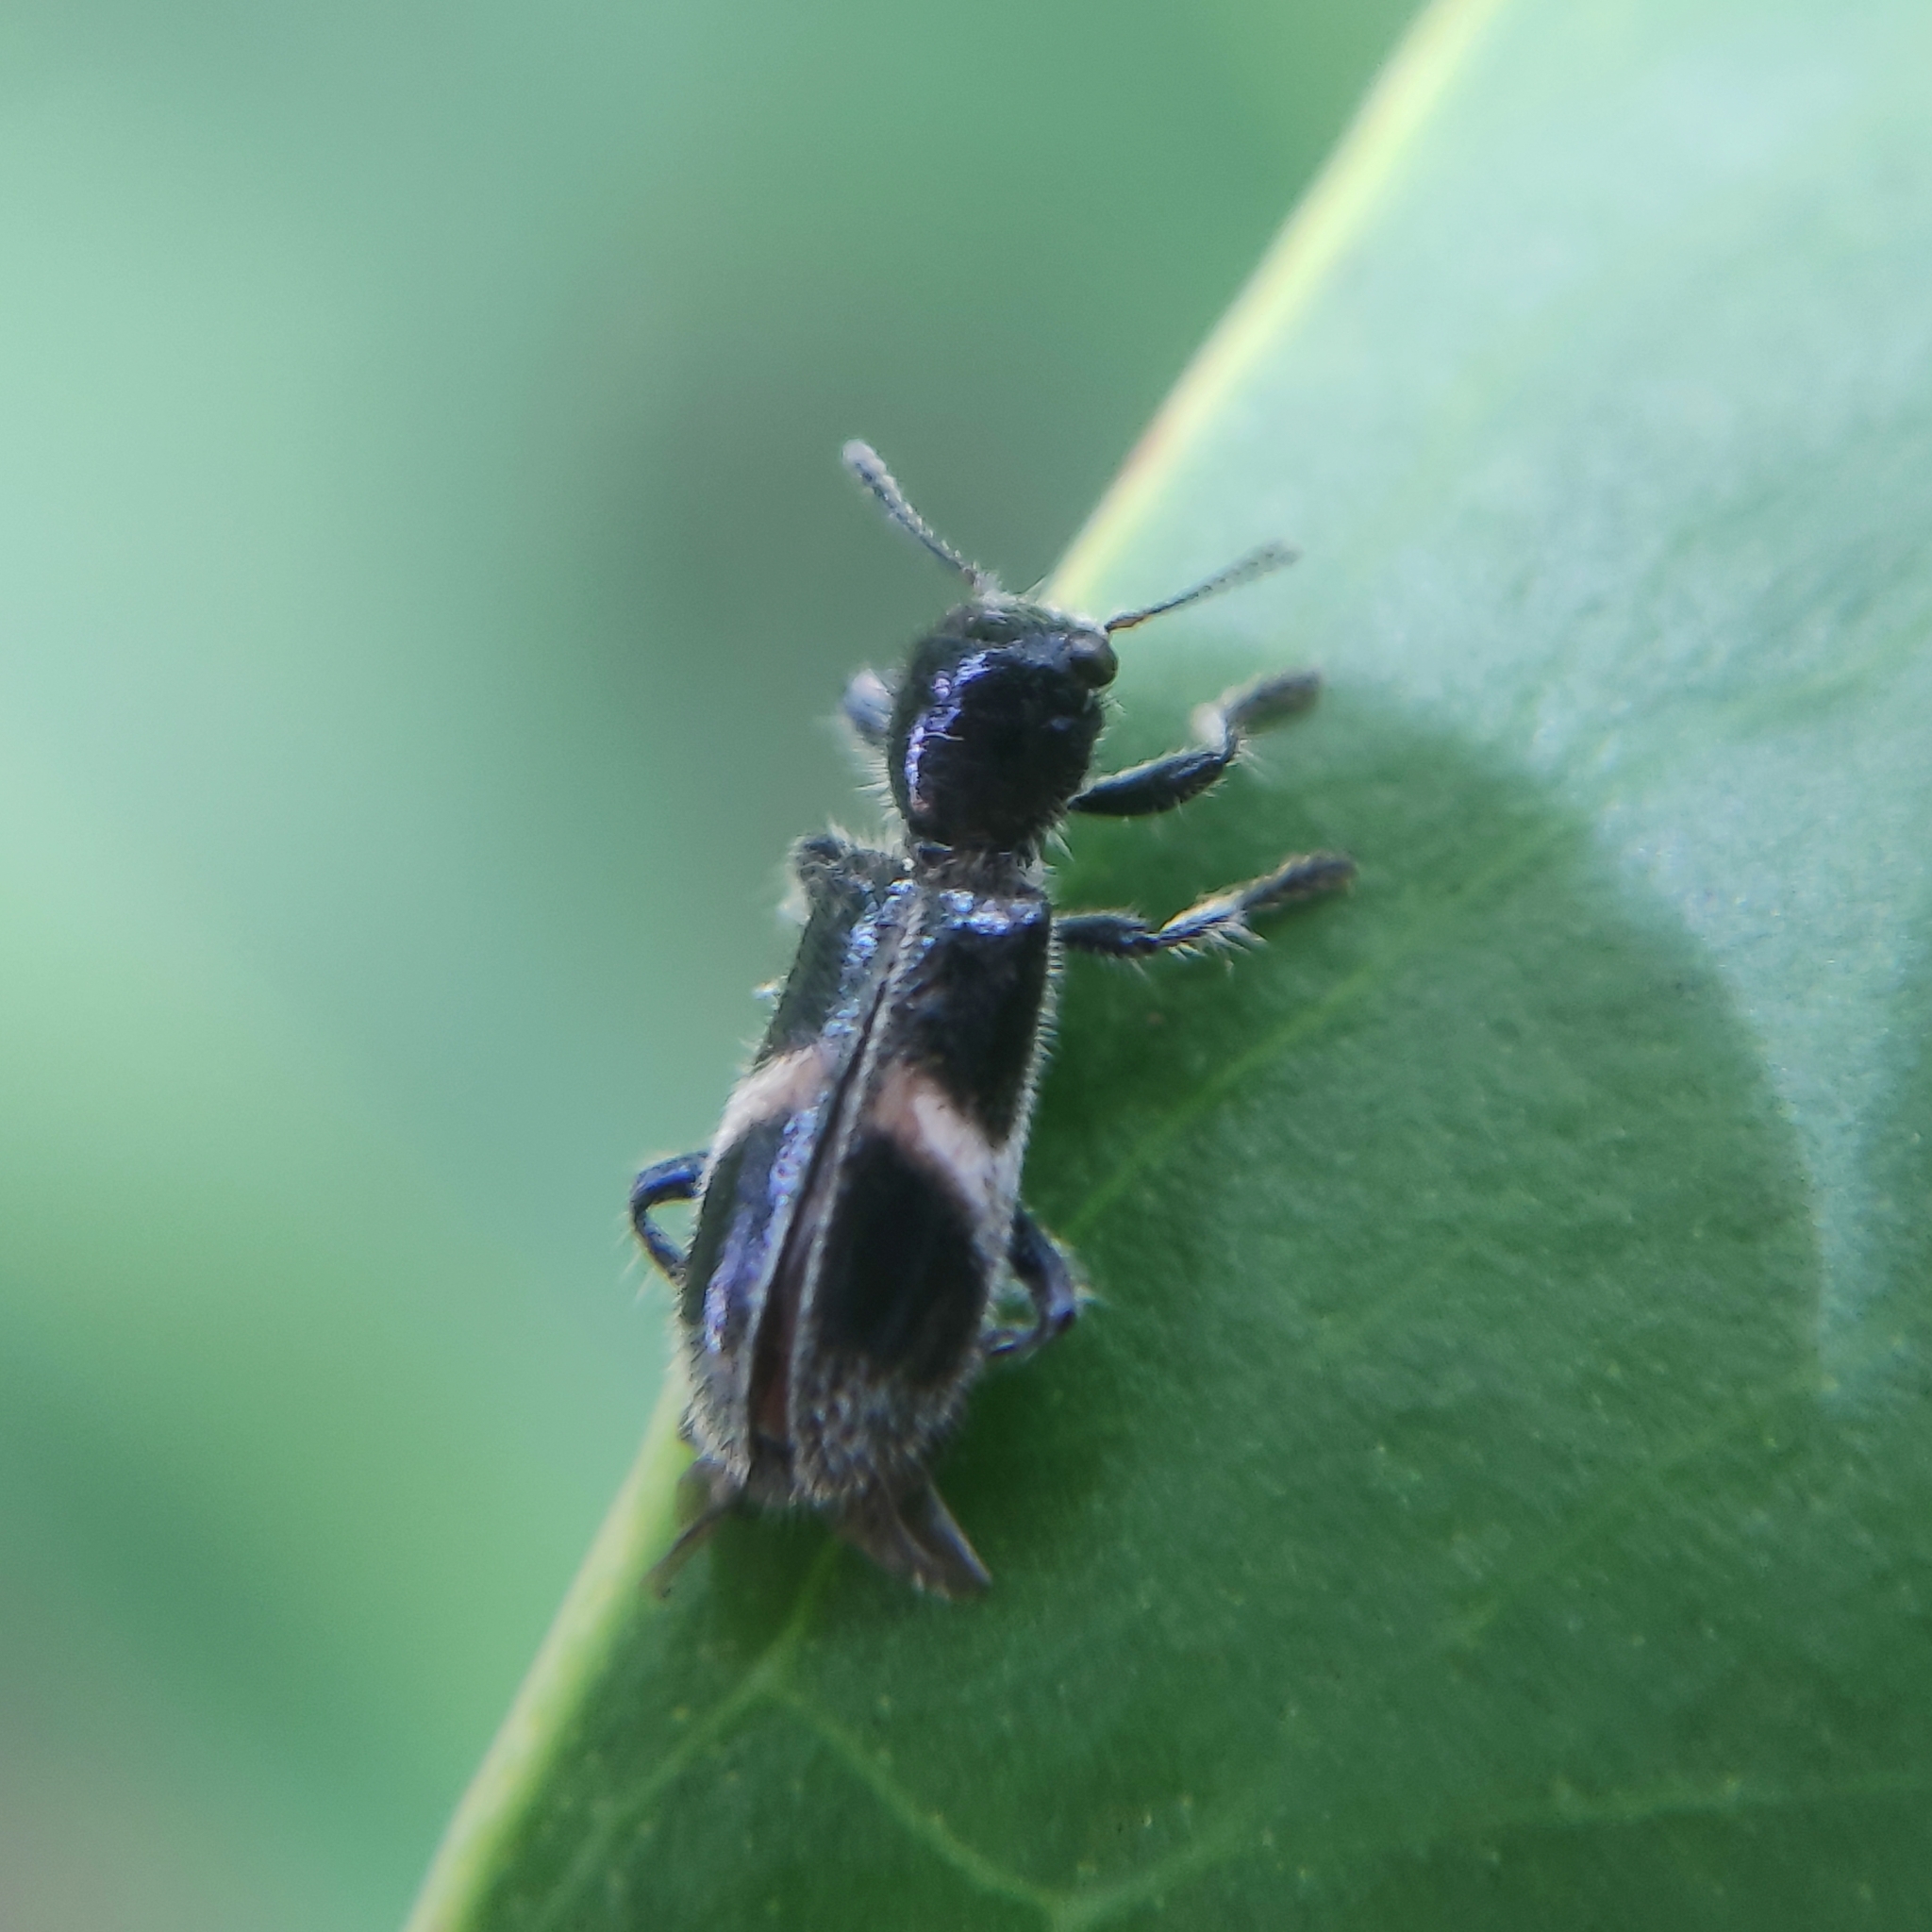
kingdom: Animalia
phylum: Arthropoda
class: Insecta
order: Coleoptera
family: Cleridae
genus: Enoclerus
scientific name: Enoclerus
